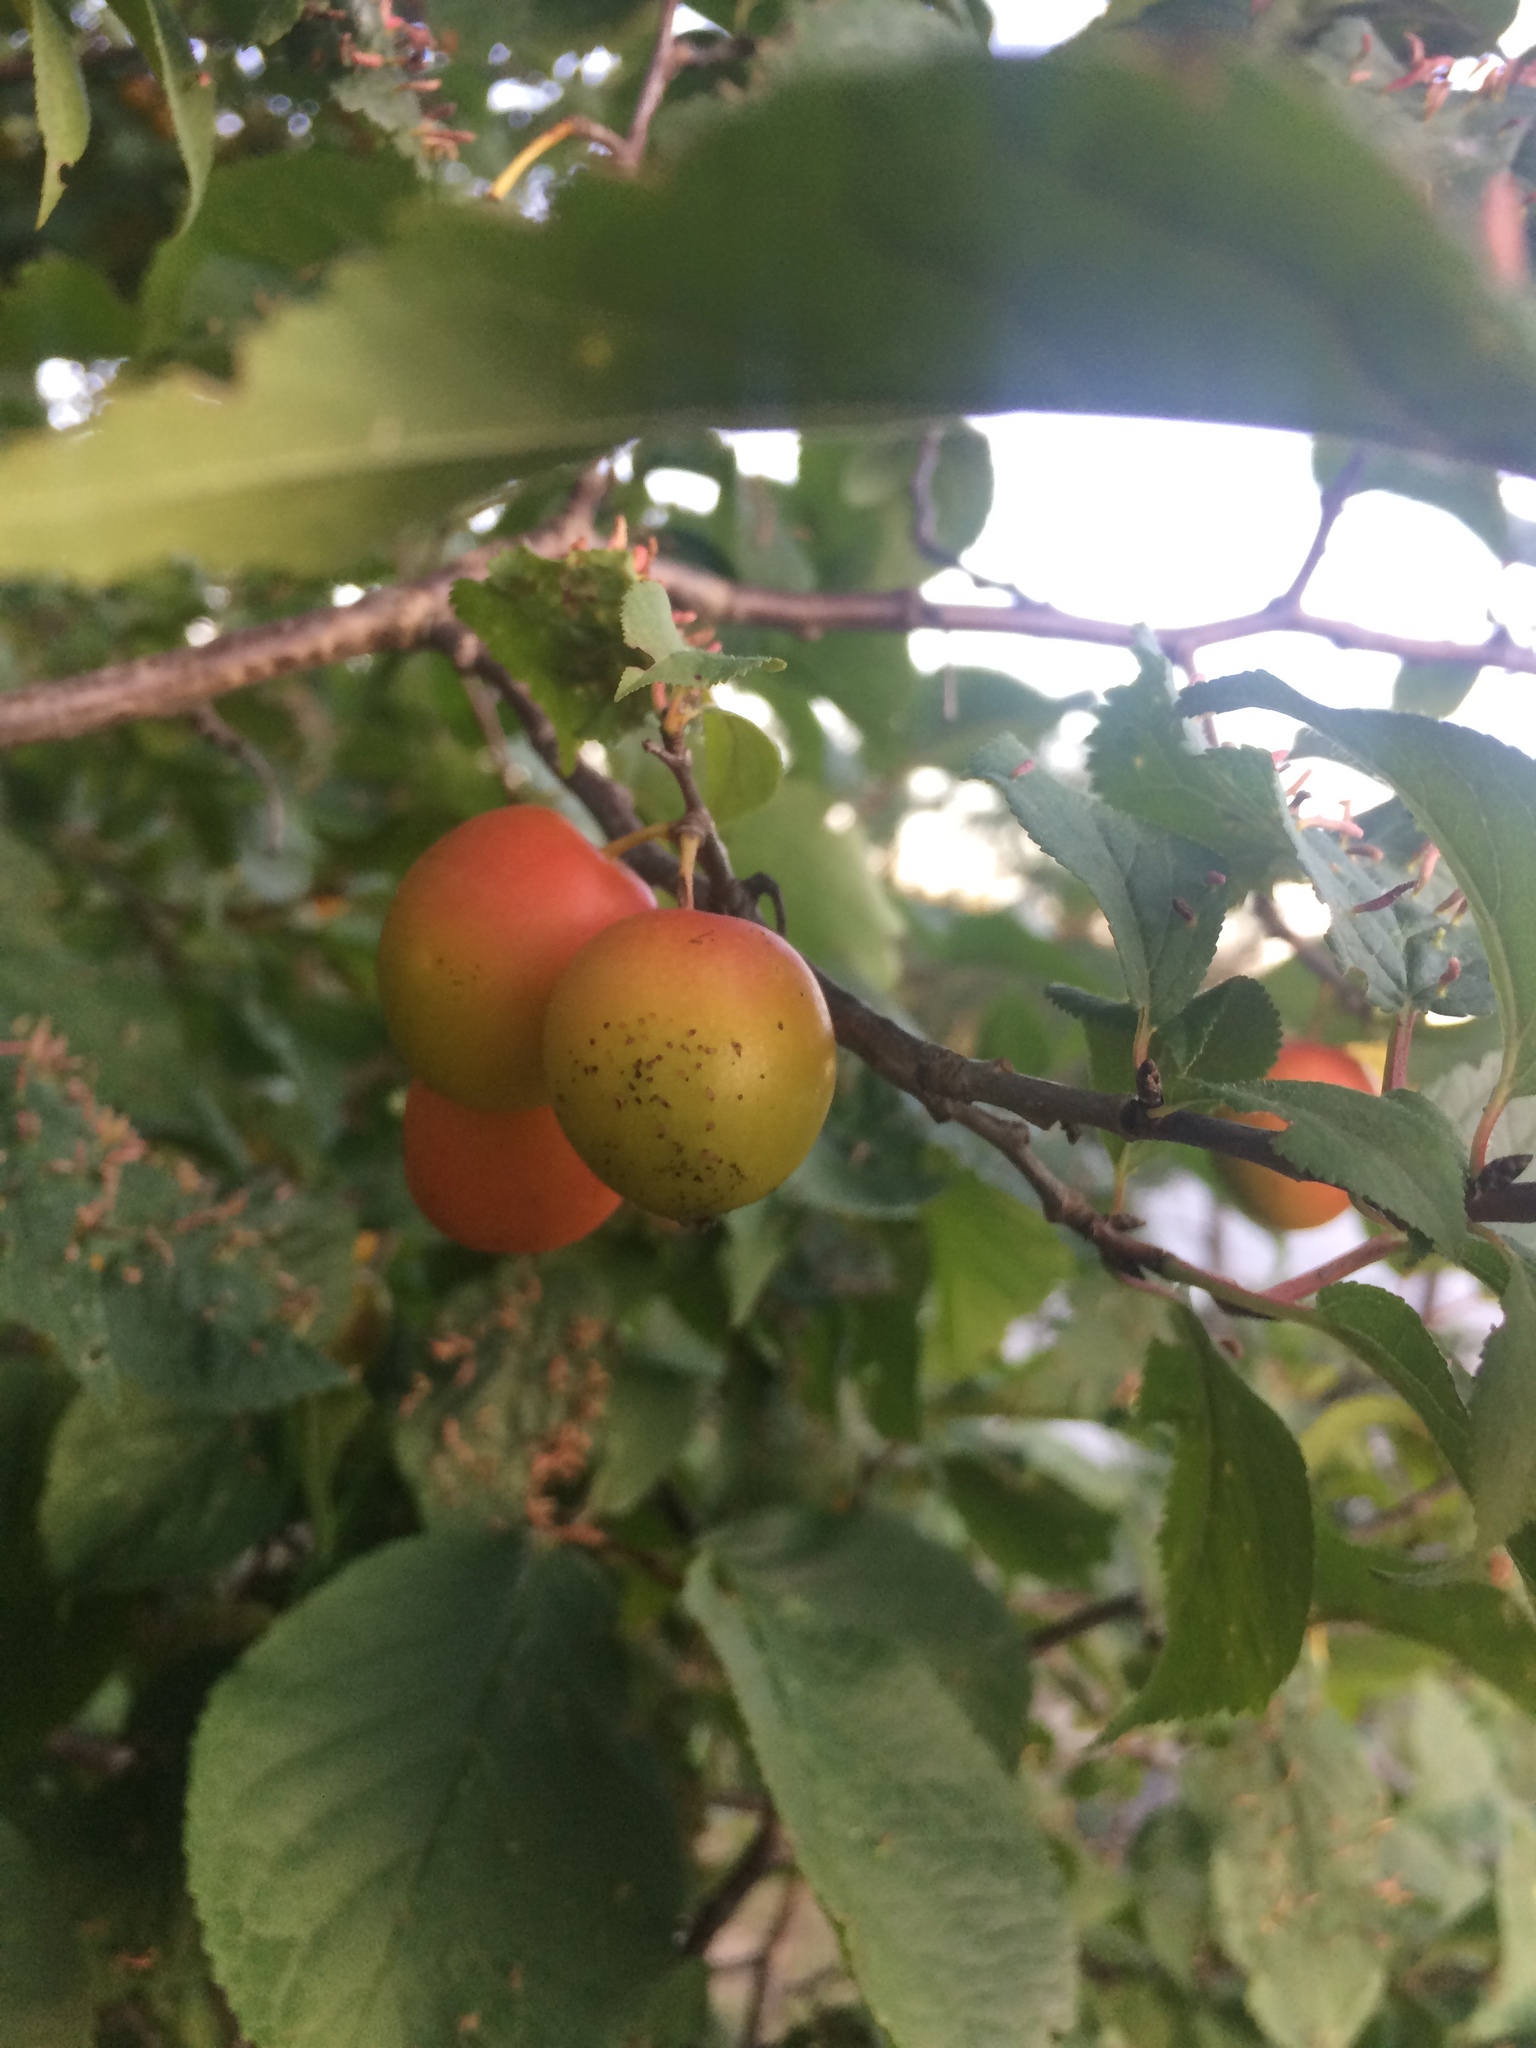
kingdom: Plantae
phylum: Tracheophyta
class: Magnoliopsida
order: Rosales
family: Rosaceae
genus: Prunus
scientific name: Prunus nigra
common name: Black plum
